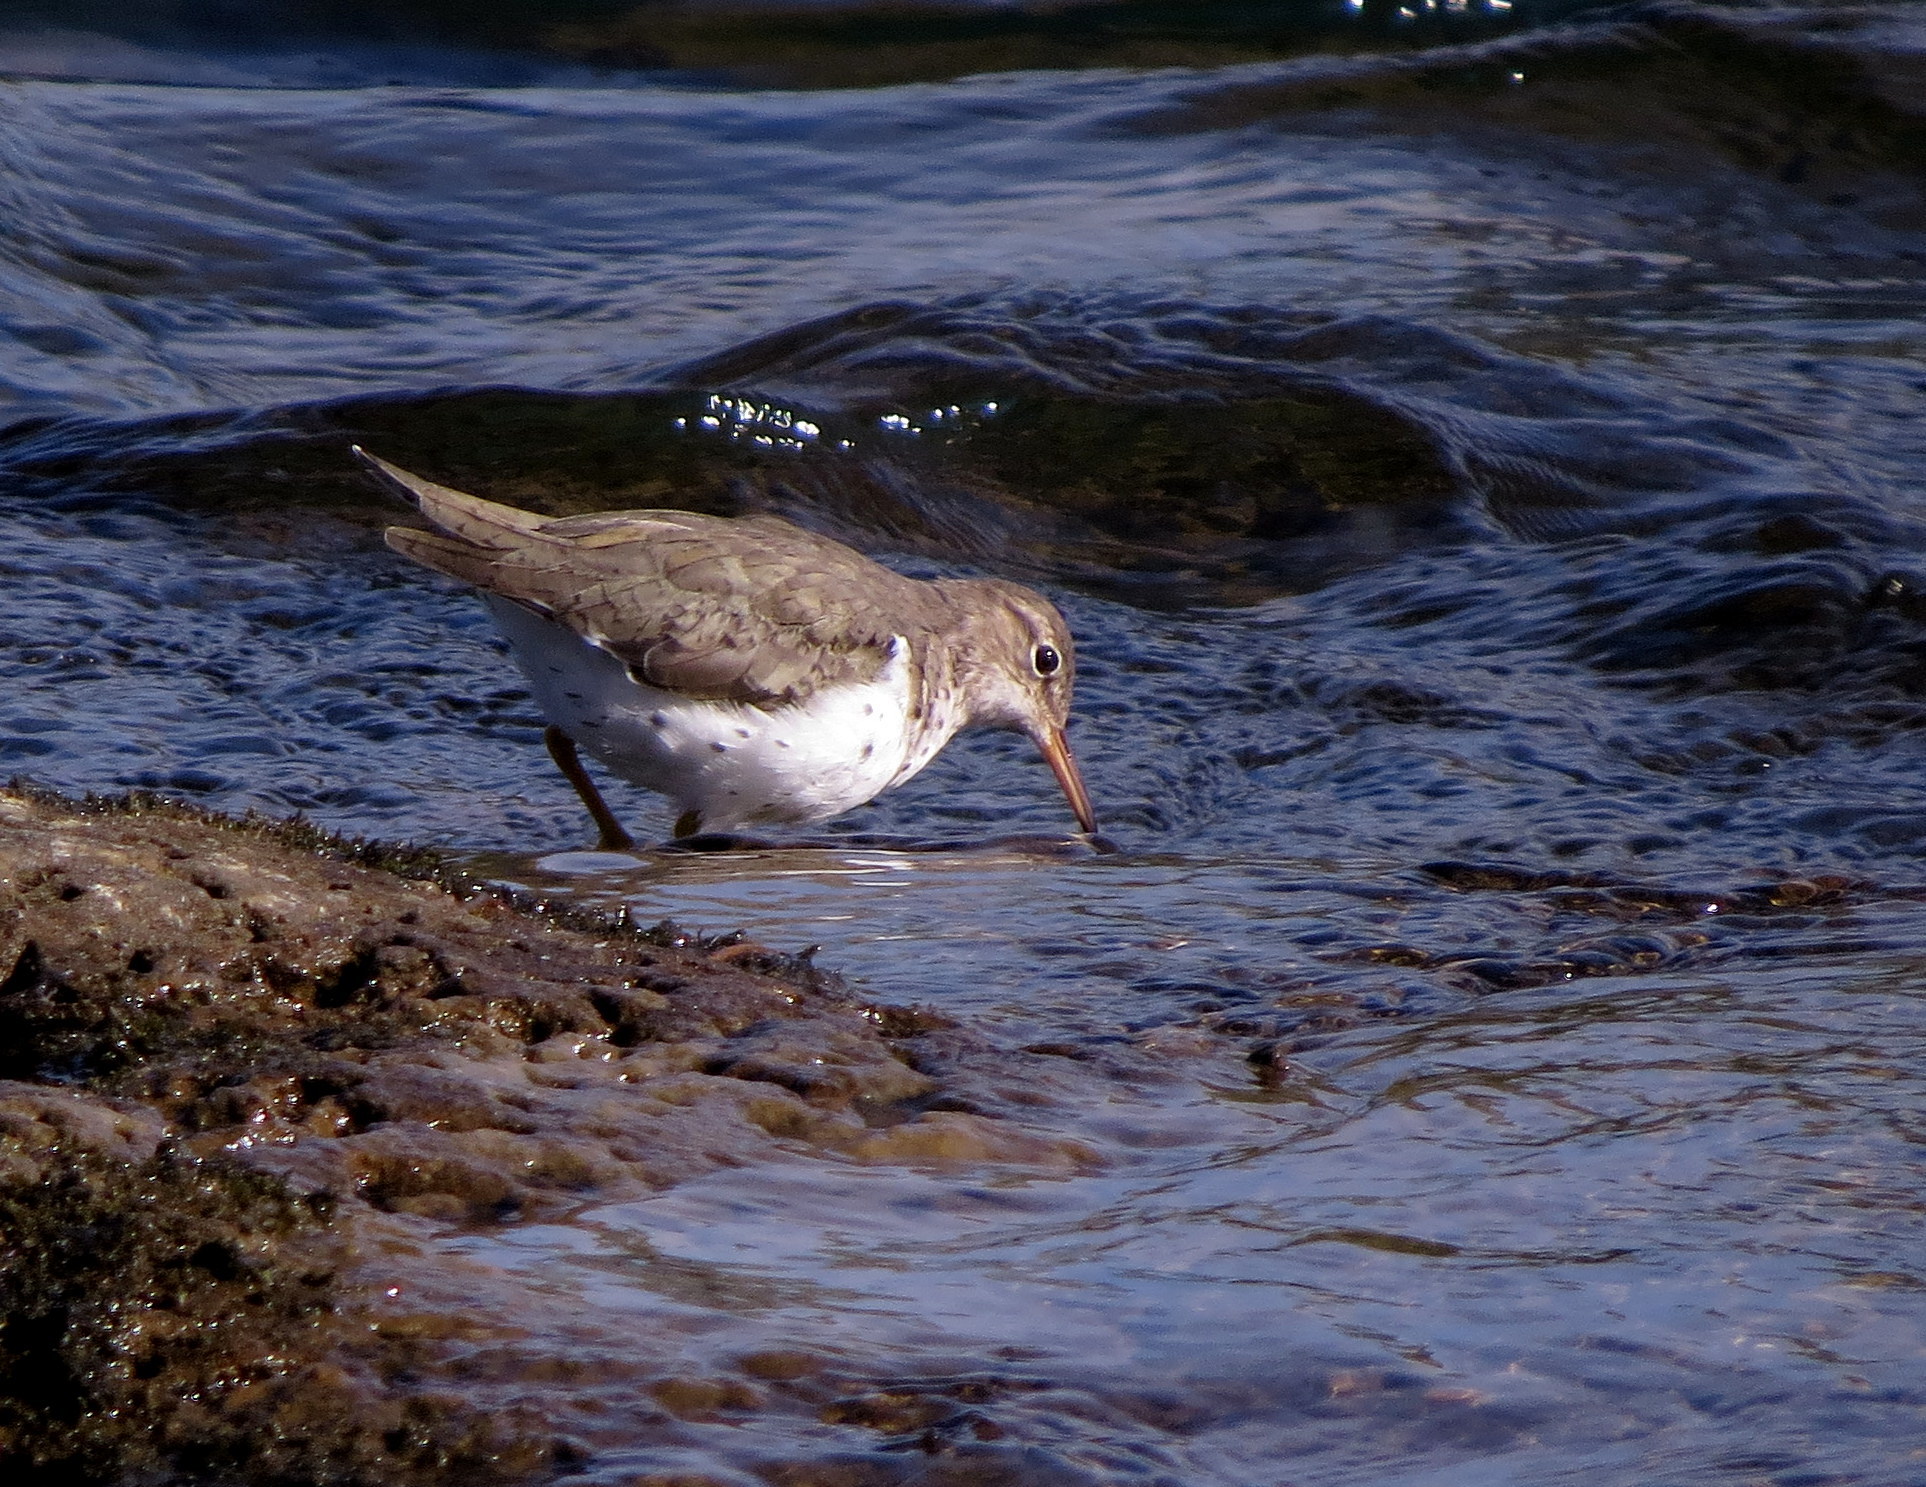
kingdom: Animalia
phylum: Chordata
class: Aves
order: Charadriiformes
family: Scolopacidae
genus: Actitis
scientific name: Actitis macularius
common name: Spotted sandpiper
